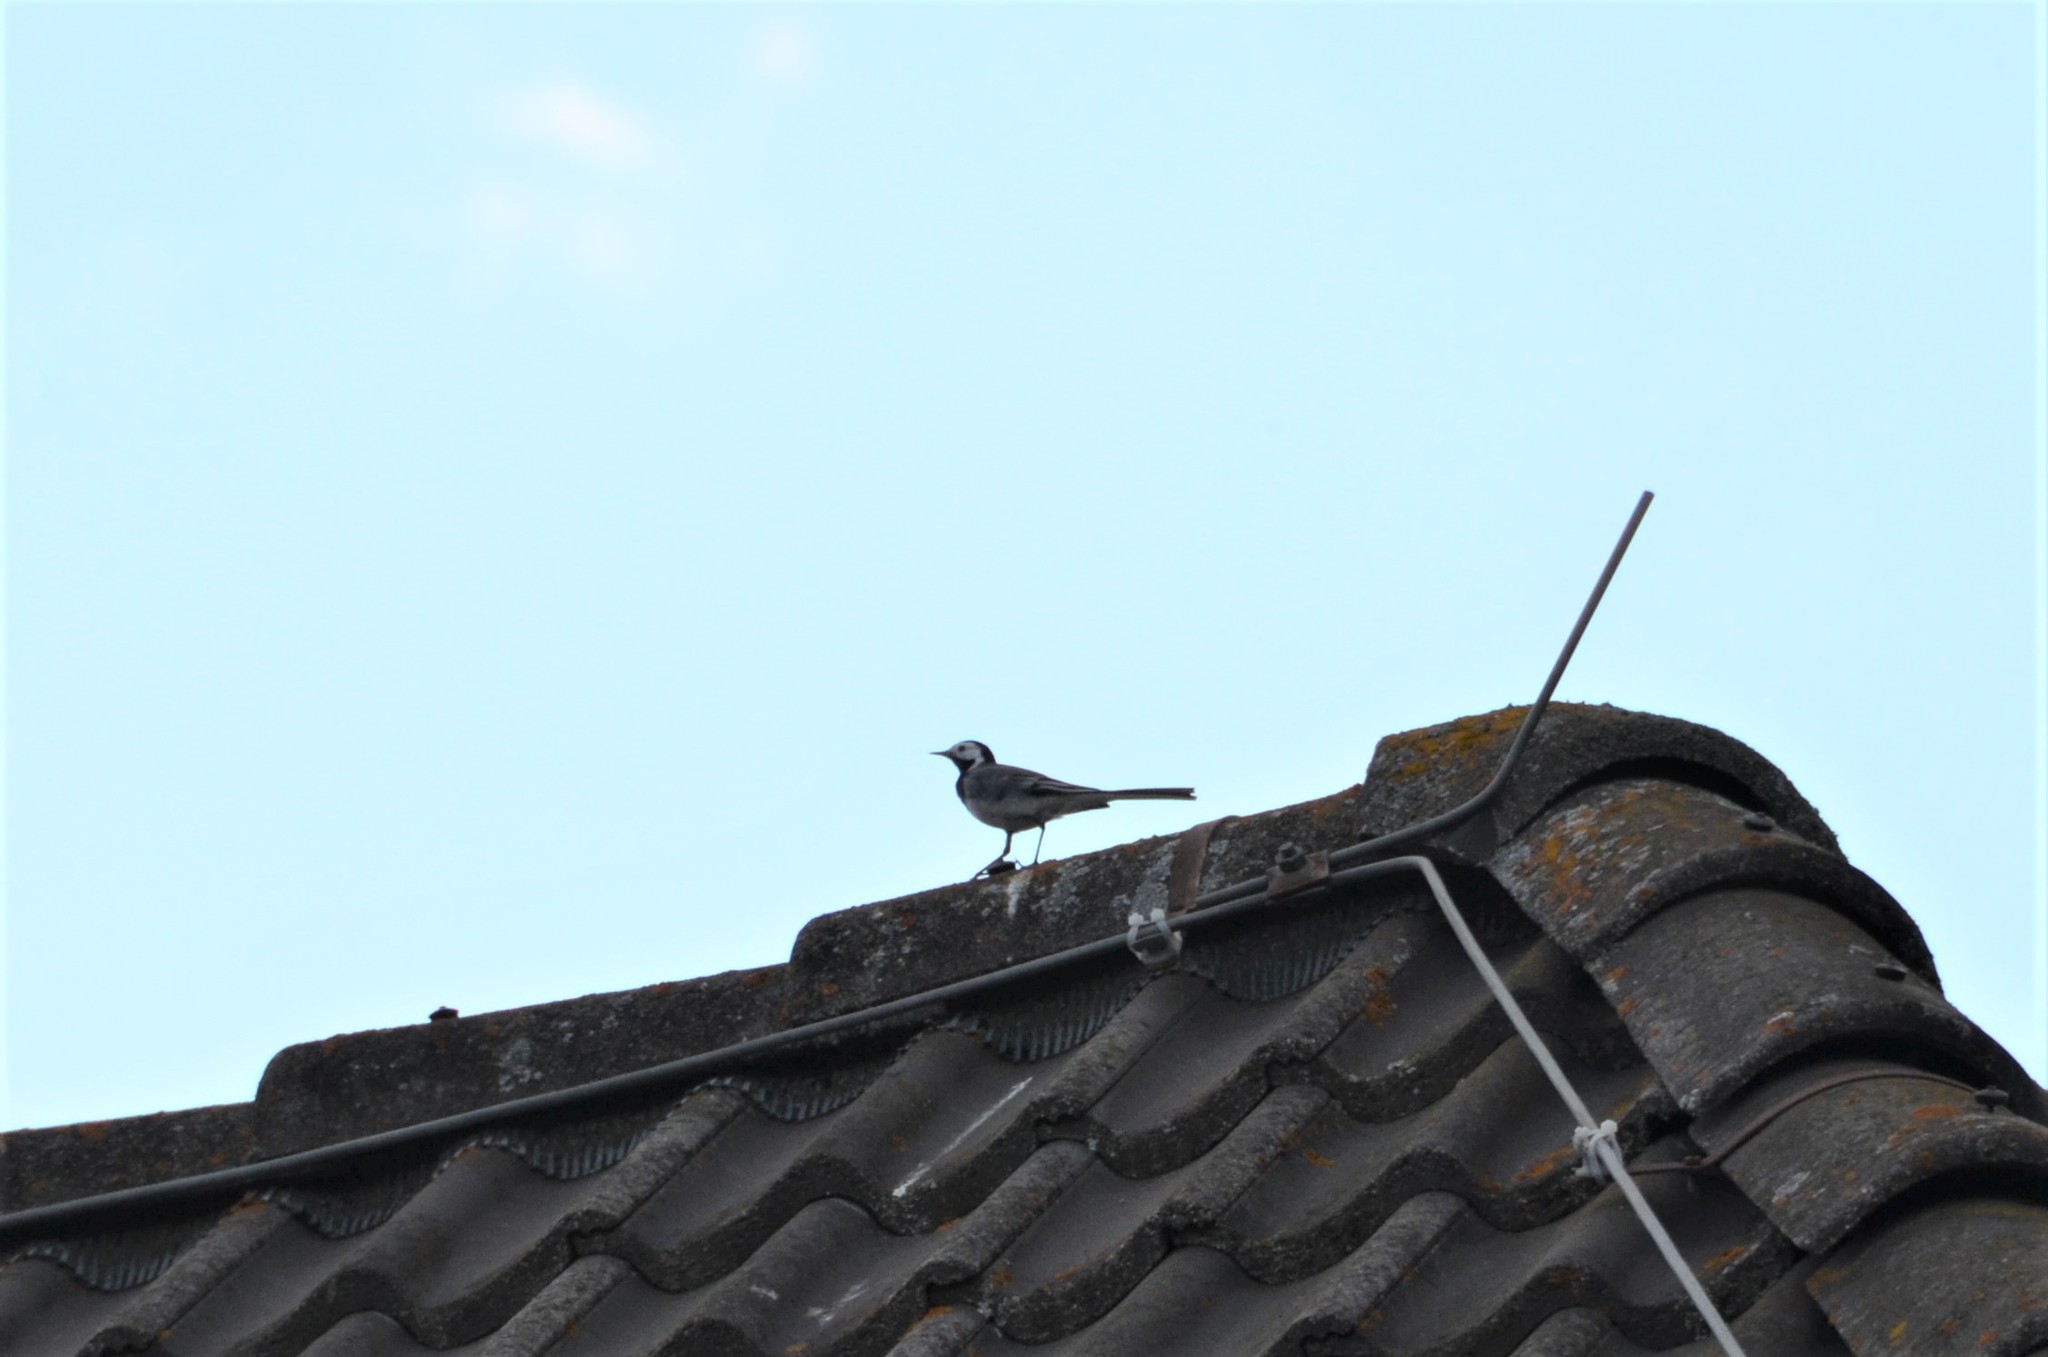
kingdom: Animalia
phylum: Chordata
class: Aves
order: Passeriformes
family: Motacillidae
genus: Motacilla
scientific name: Motacilla alba
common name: White wagtail
